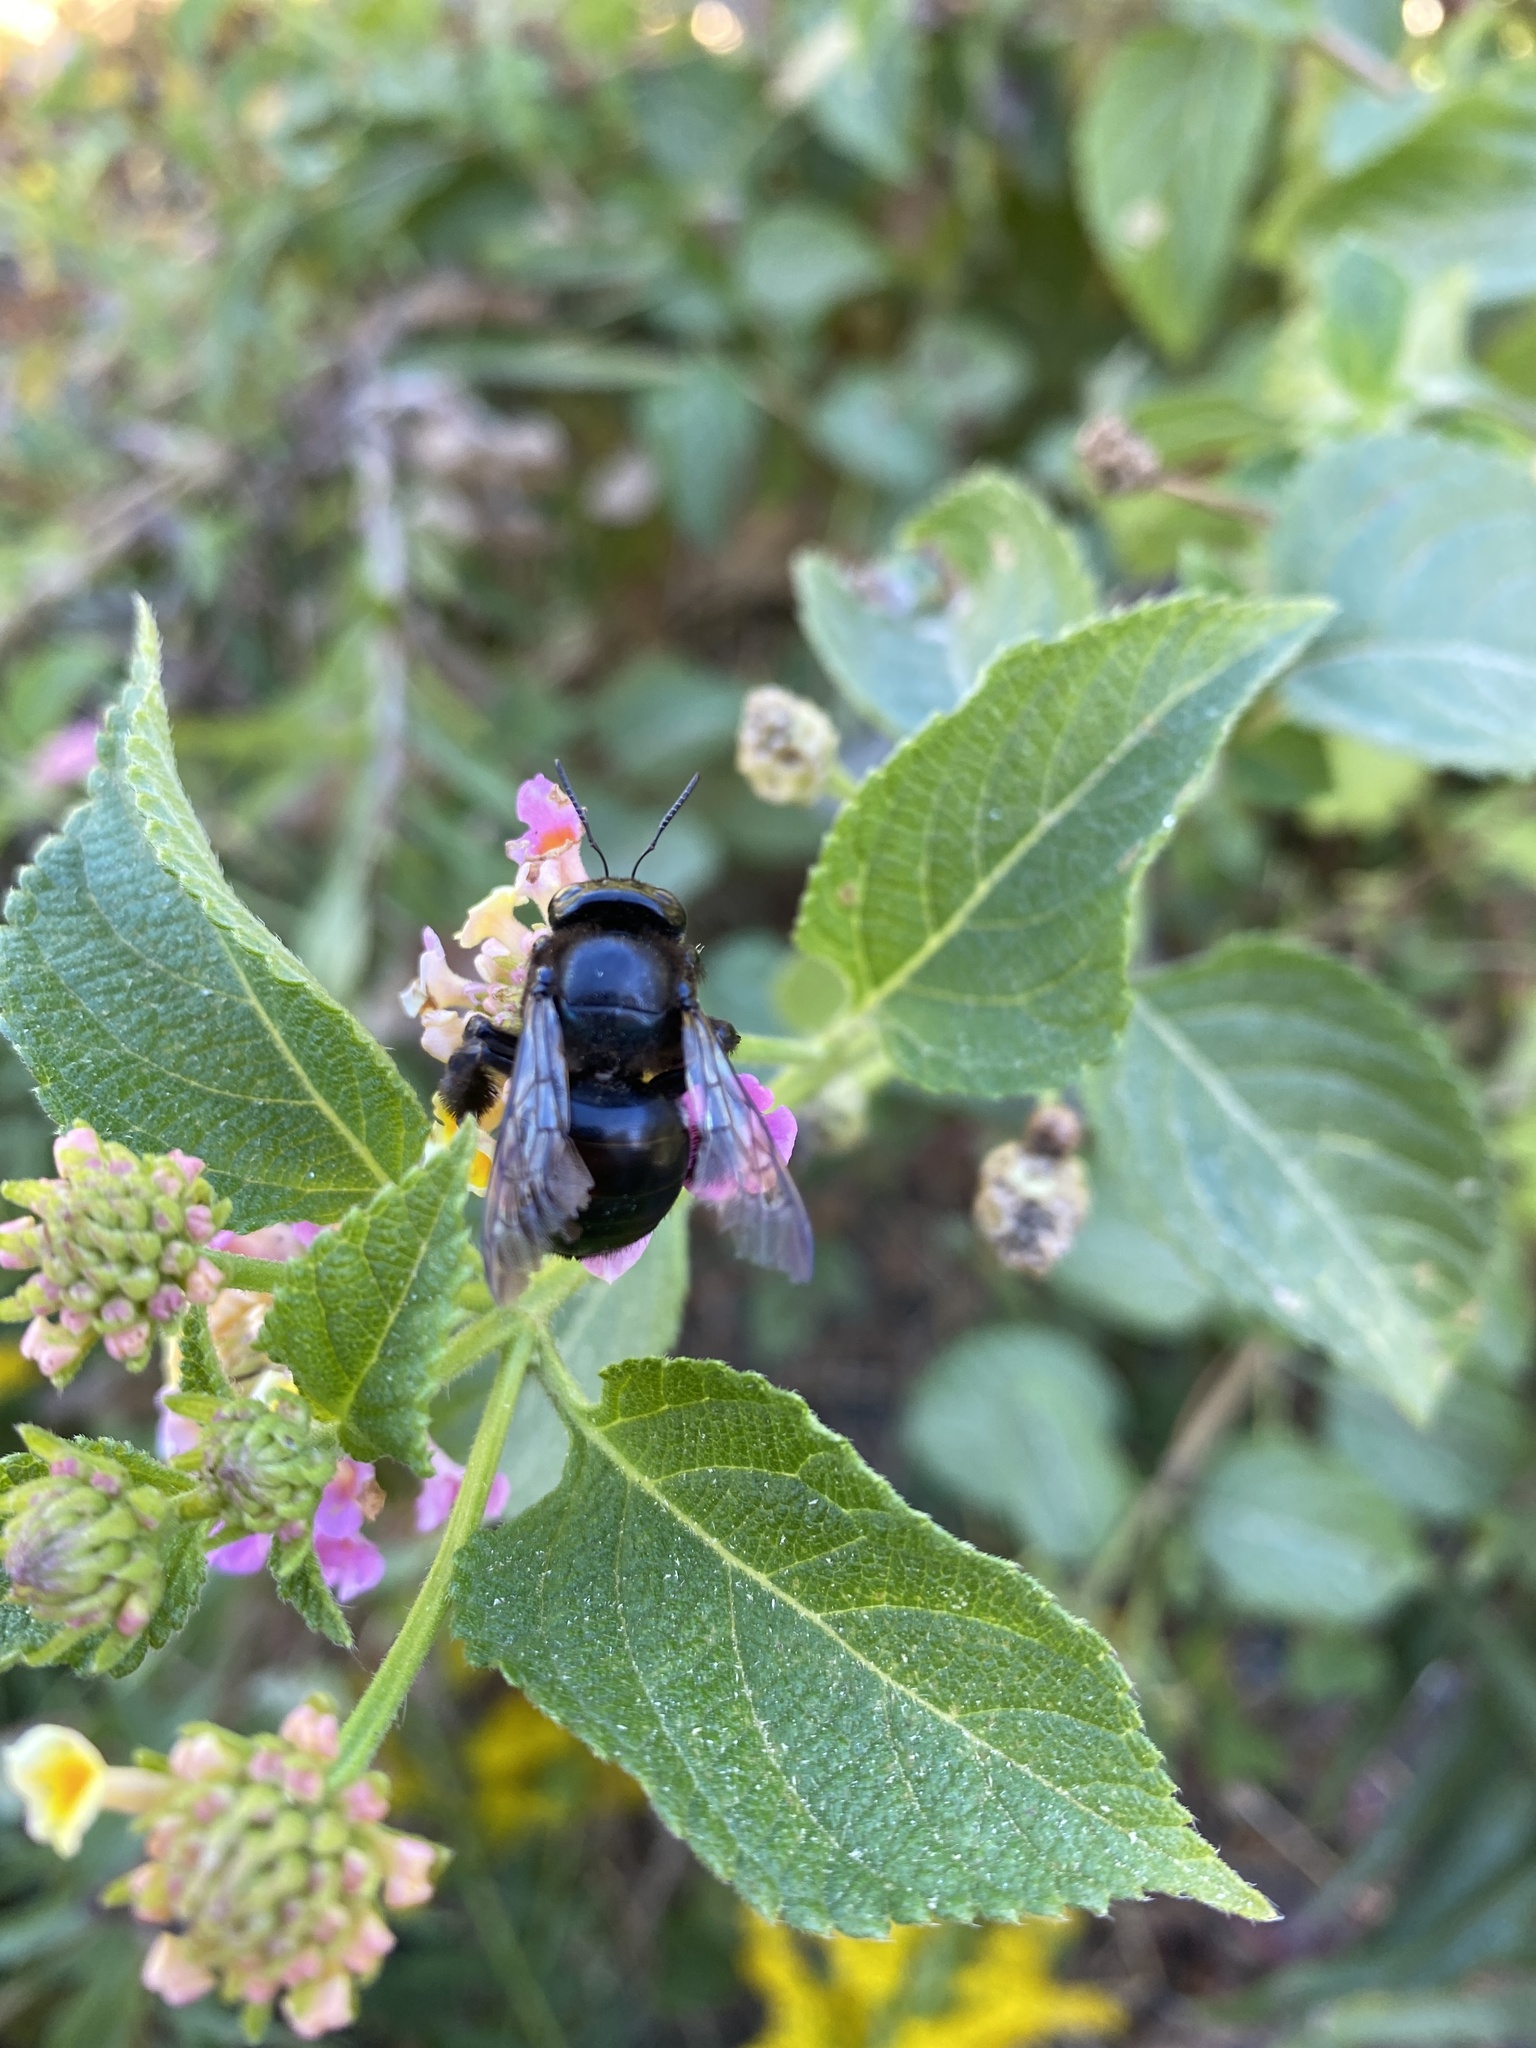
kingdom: Animalia
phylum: Arthropoda
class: Insecta
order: Hymenoptera
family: Apidae
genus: Xylocopa
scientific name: Xylocopa micans
